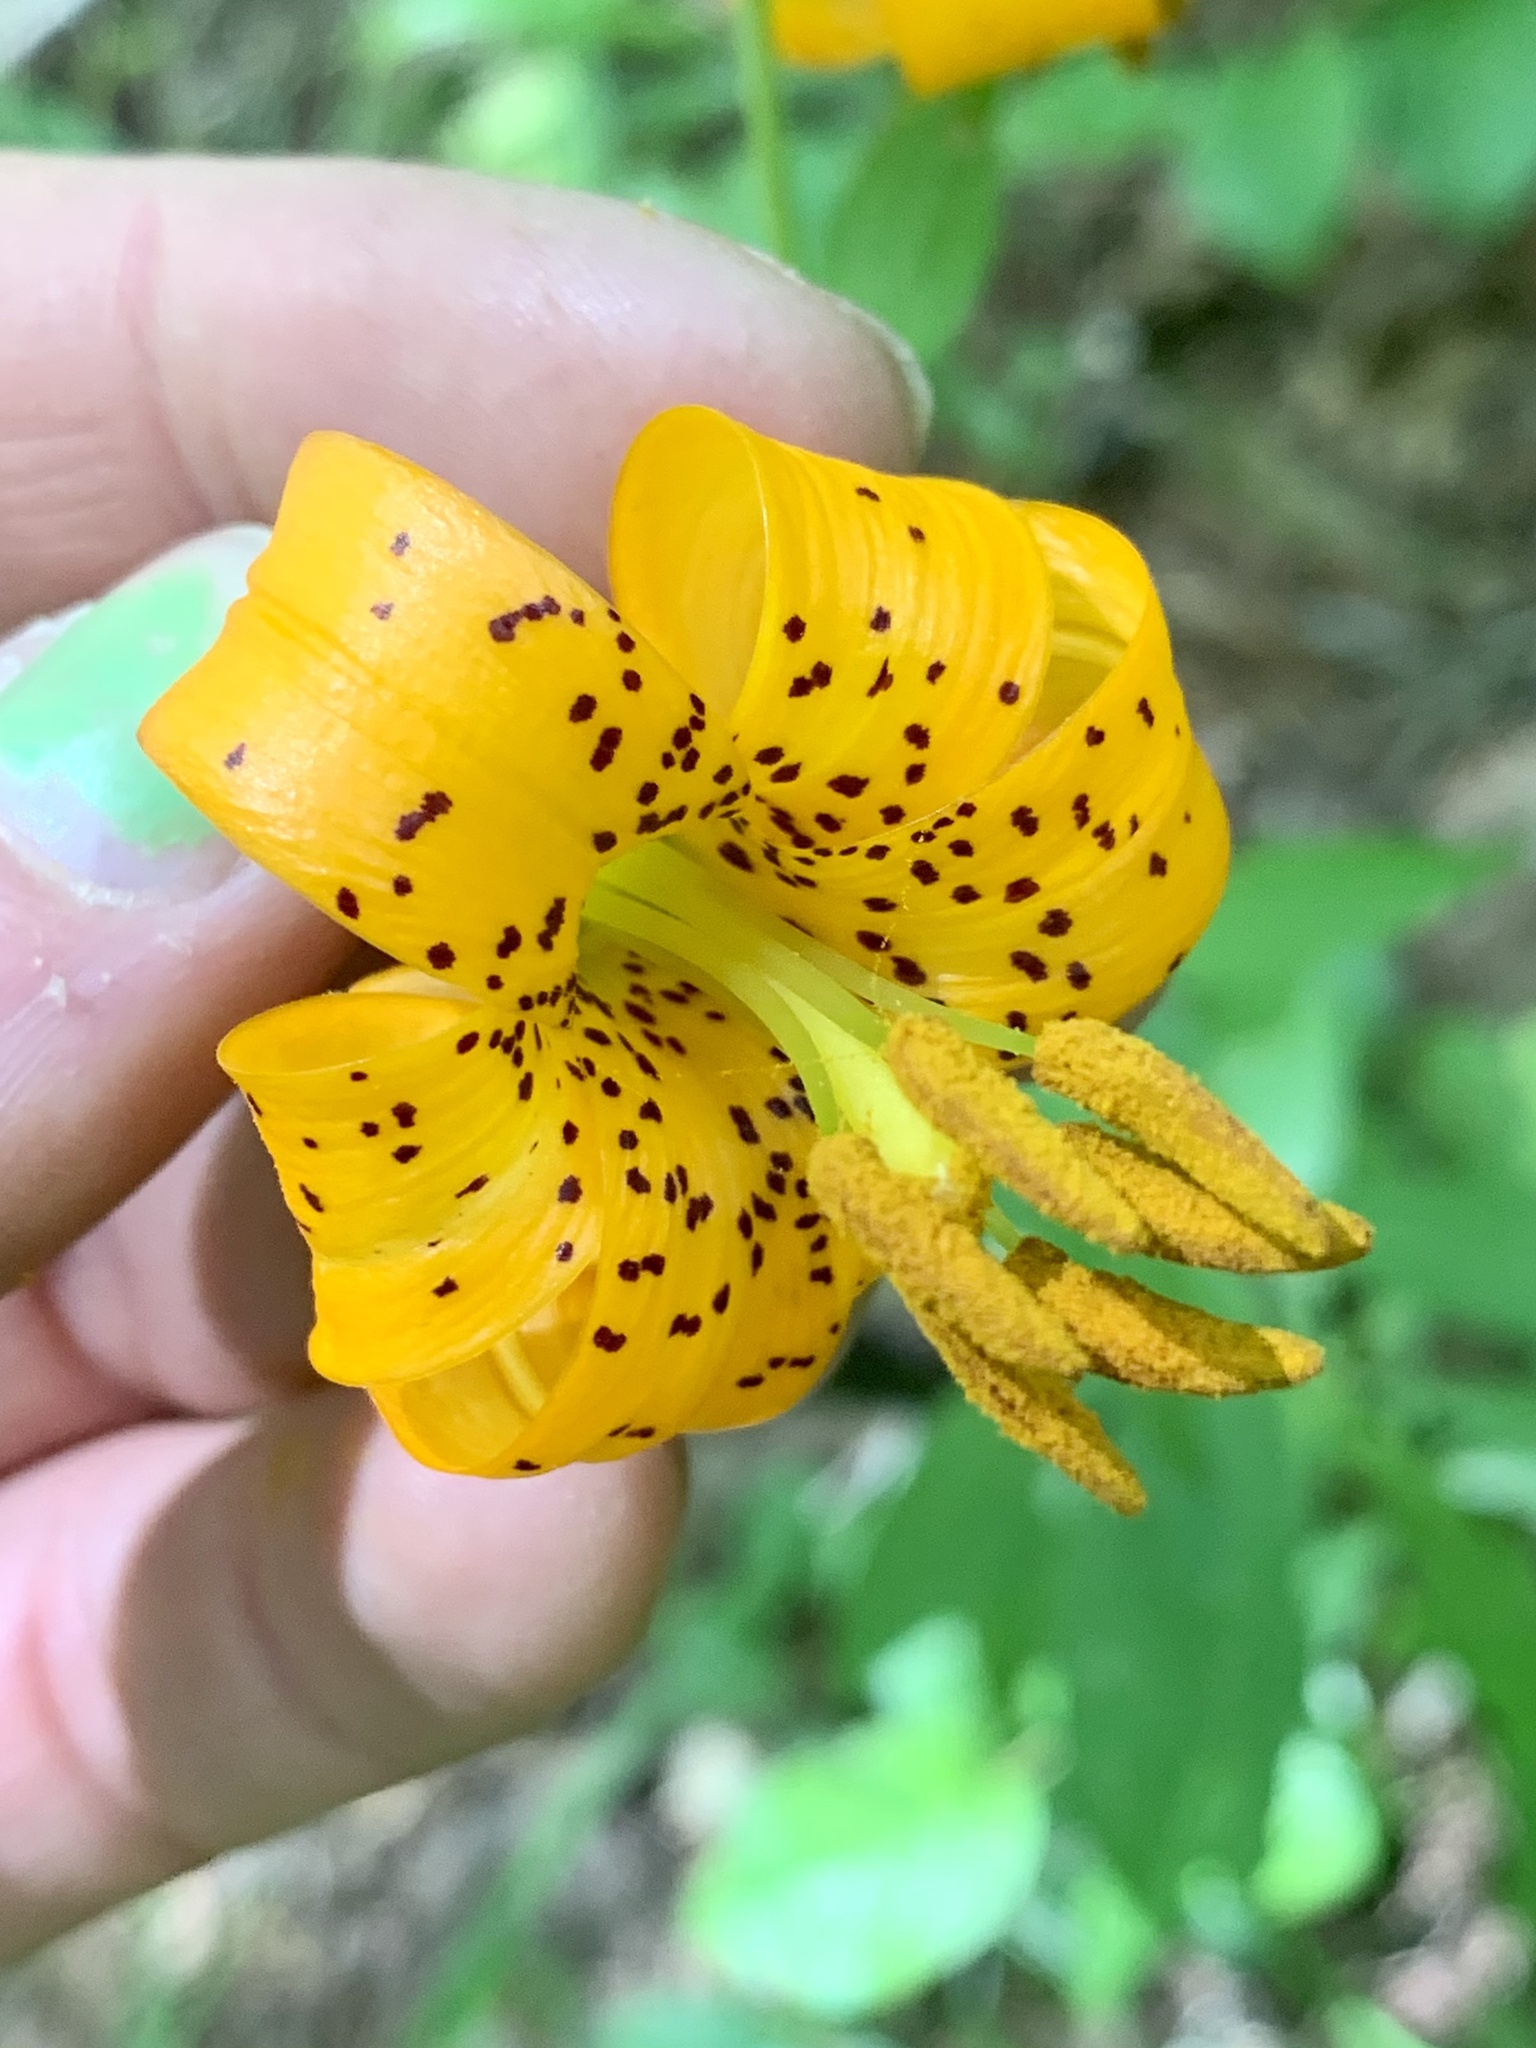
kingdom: Plantae
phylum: Tracheophyta
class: Liliopsida
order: Liliales
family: Liliaceae
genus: Lilium
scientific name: Lilium columbianum
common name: Columbia lily
